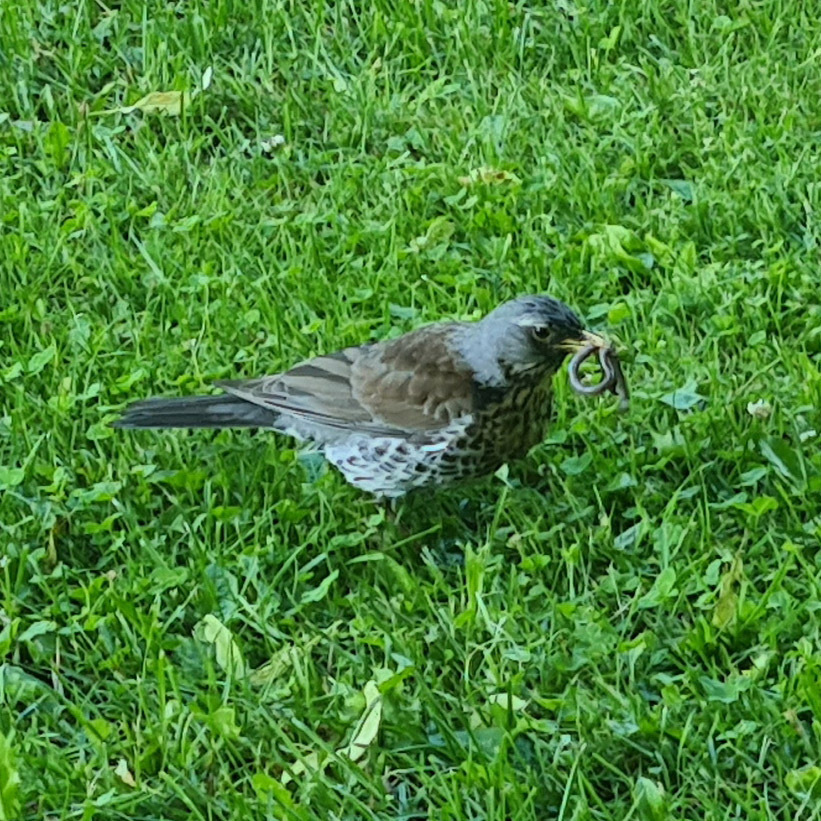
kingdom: Animalia
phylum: Chordata
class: Aves
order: Passeriformes
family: Turdidae
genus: Turdus
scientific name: Turdus pilaris
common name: Fieldfare
